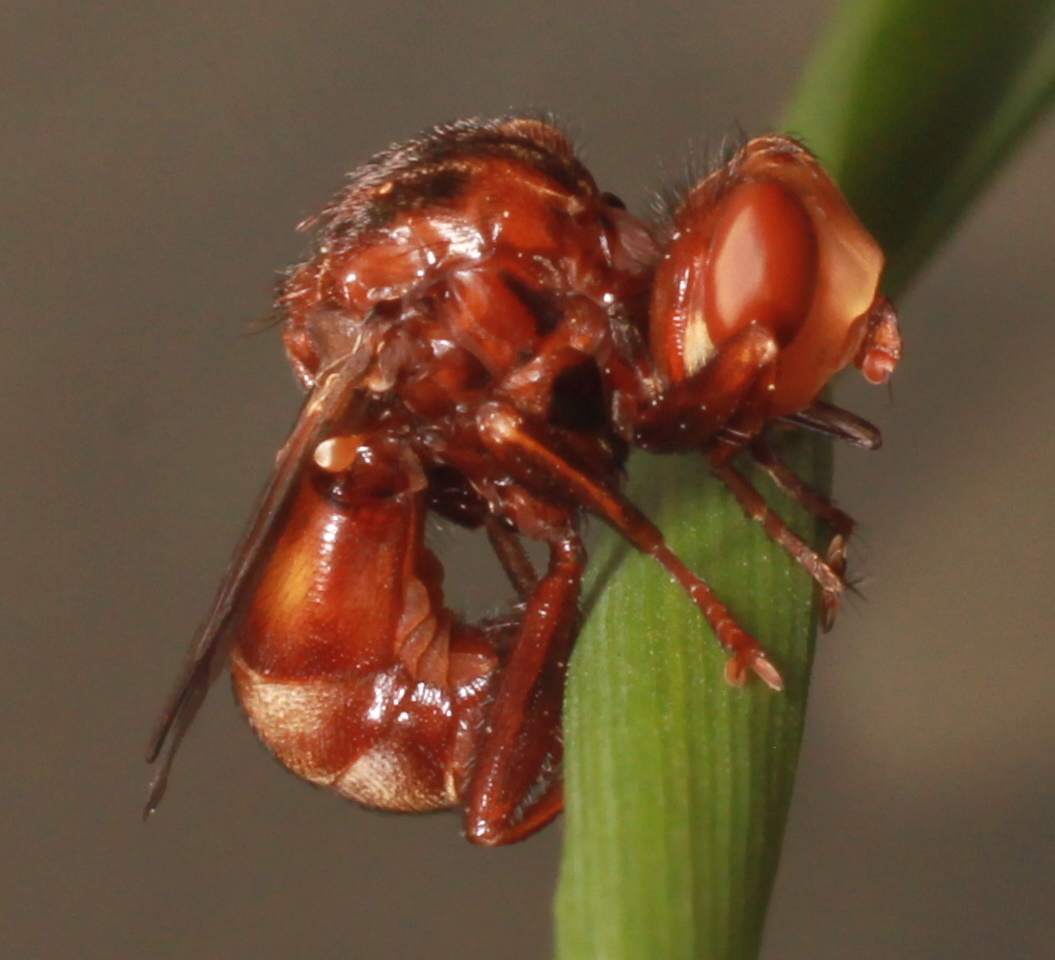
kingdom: Animalia
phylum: Arthropoda
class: Insecta
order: Diptera
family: Conopidae
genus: Sicus
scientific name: Sicus ferrugineus
